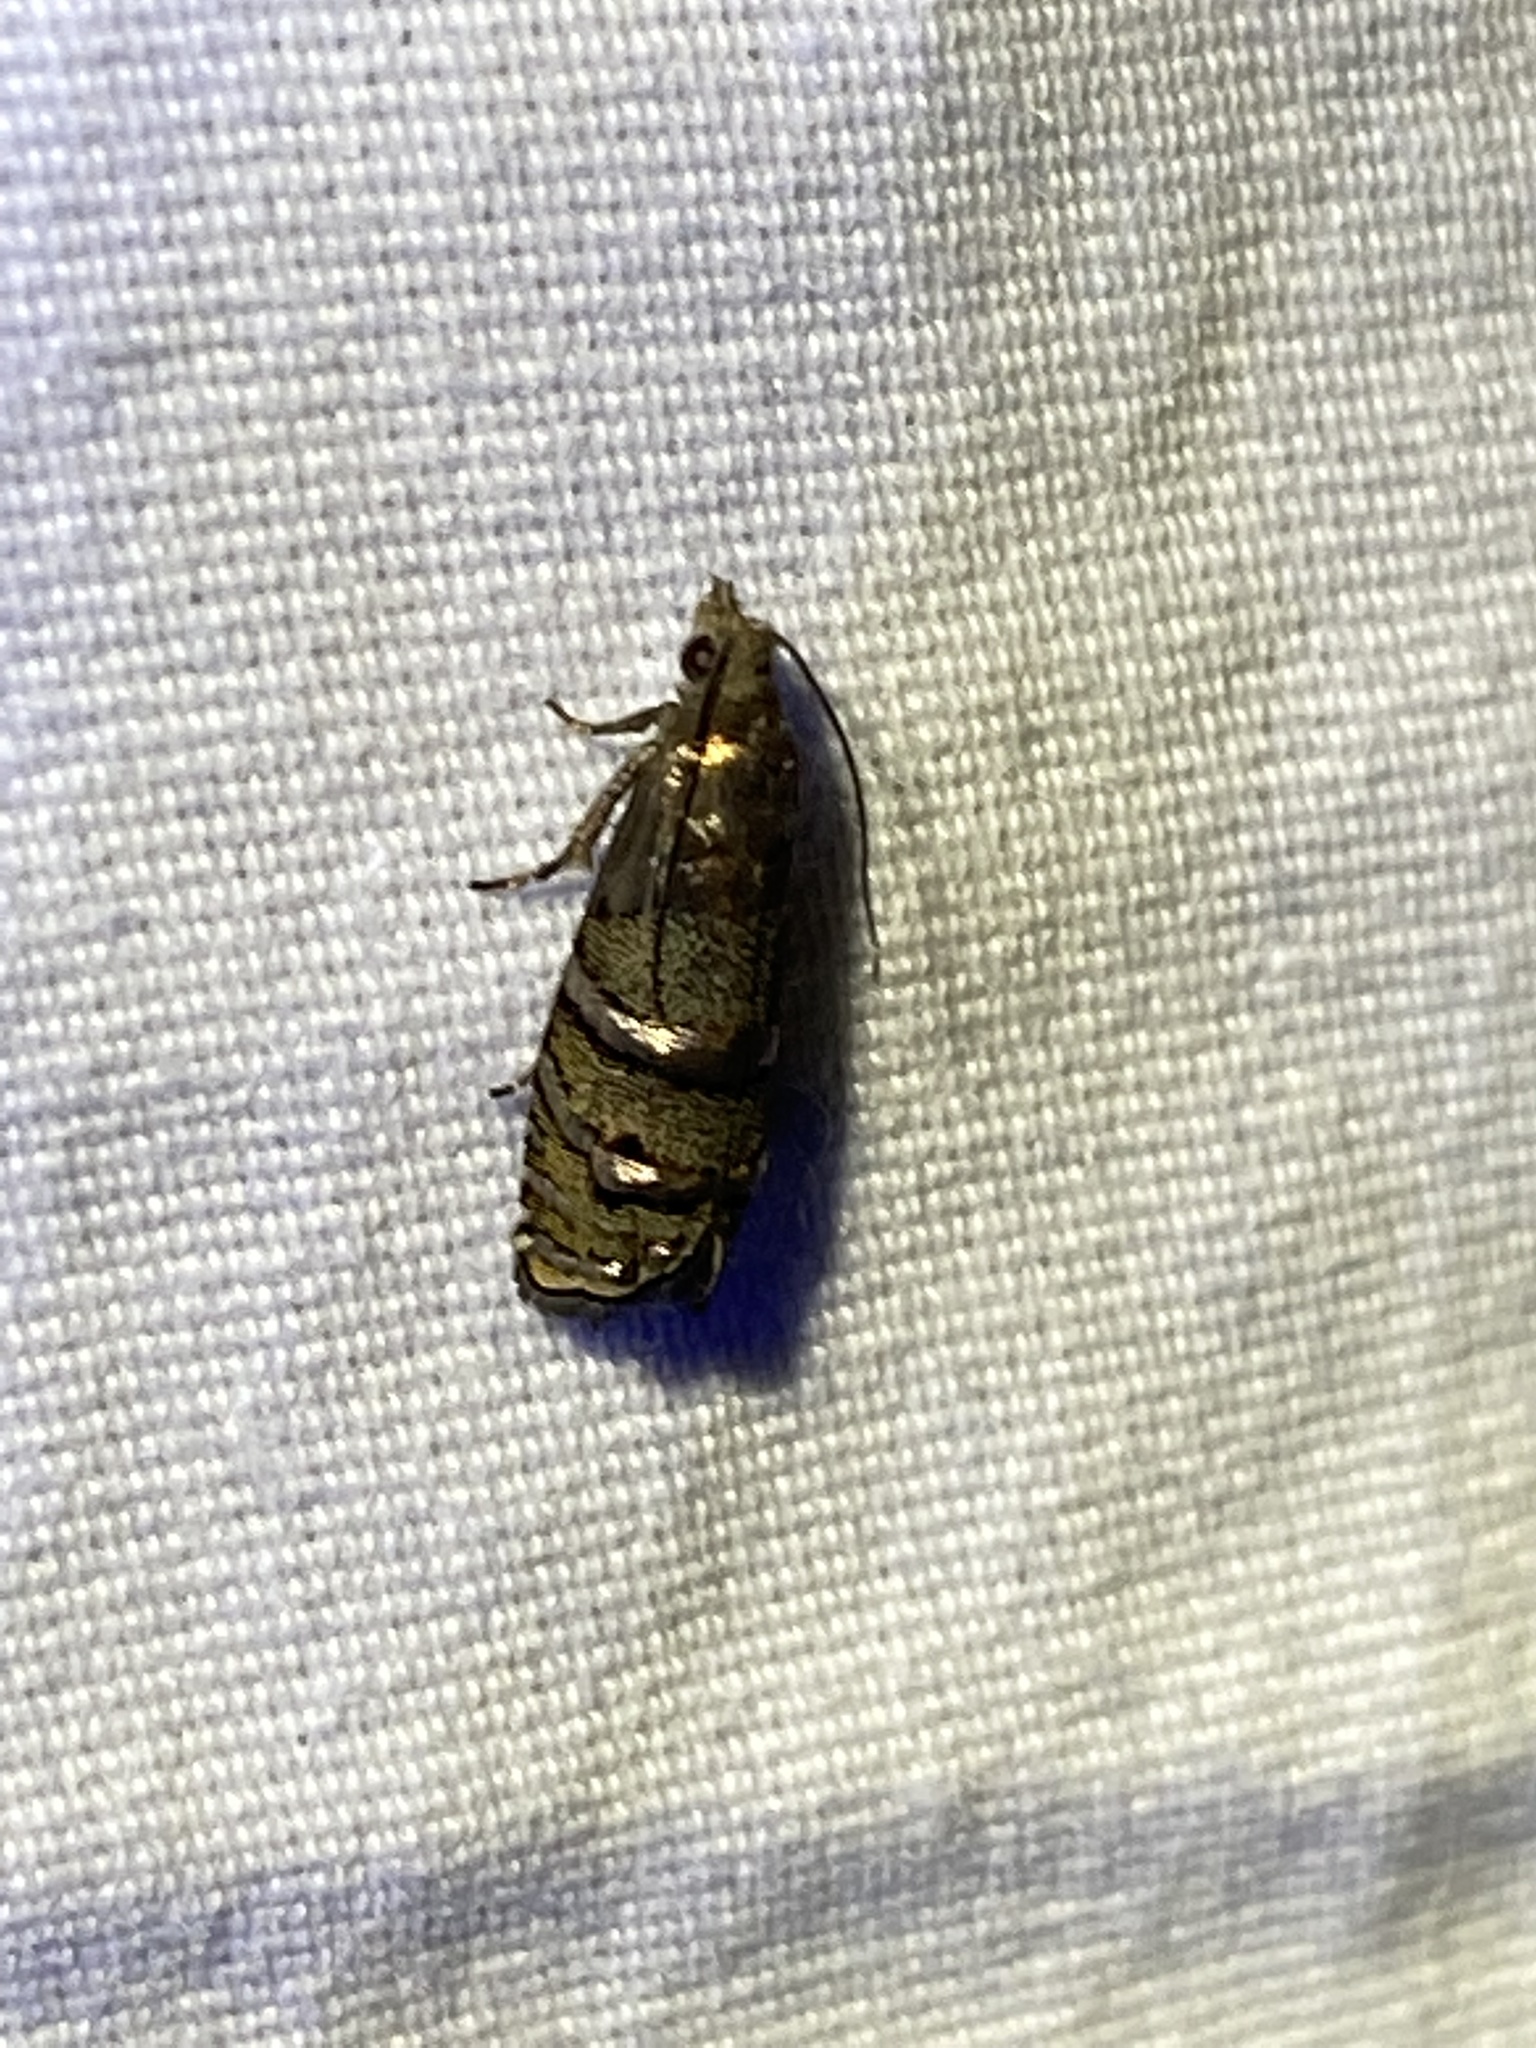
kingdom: Animalia
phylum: Arthropoda
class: Insecta
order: Lepidoptera
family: Tortricidae
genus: Cydia
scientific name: Cydia toreuta
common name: Eastern pine seedworm moth
